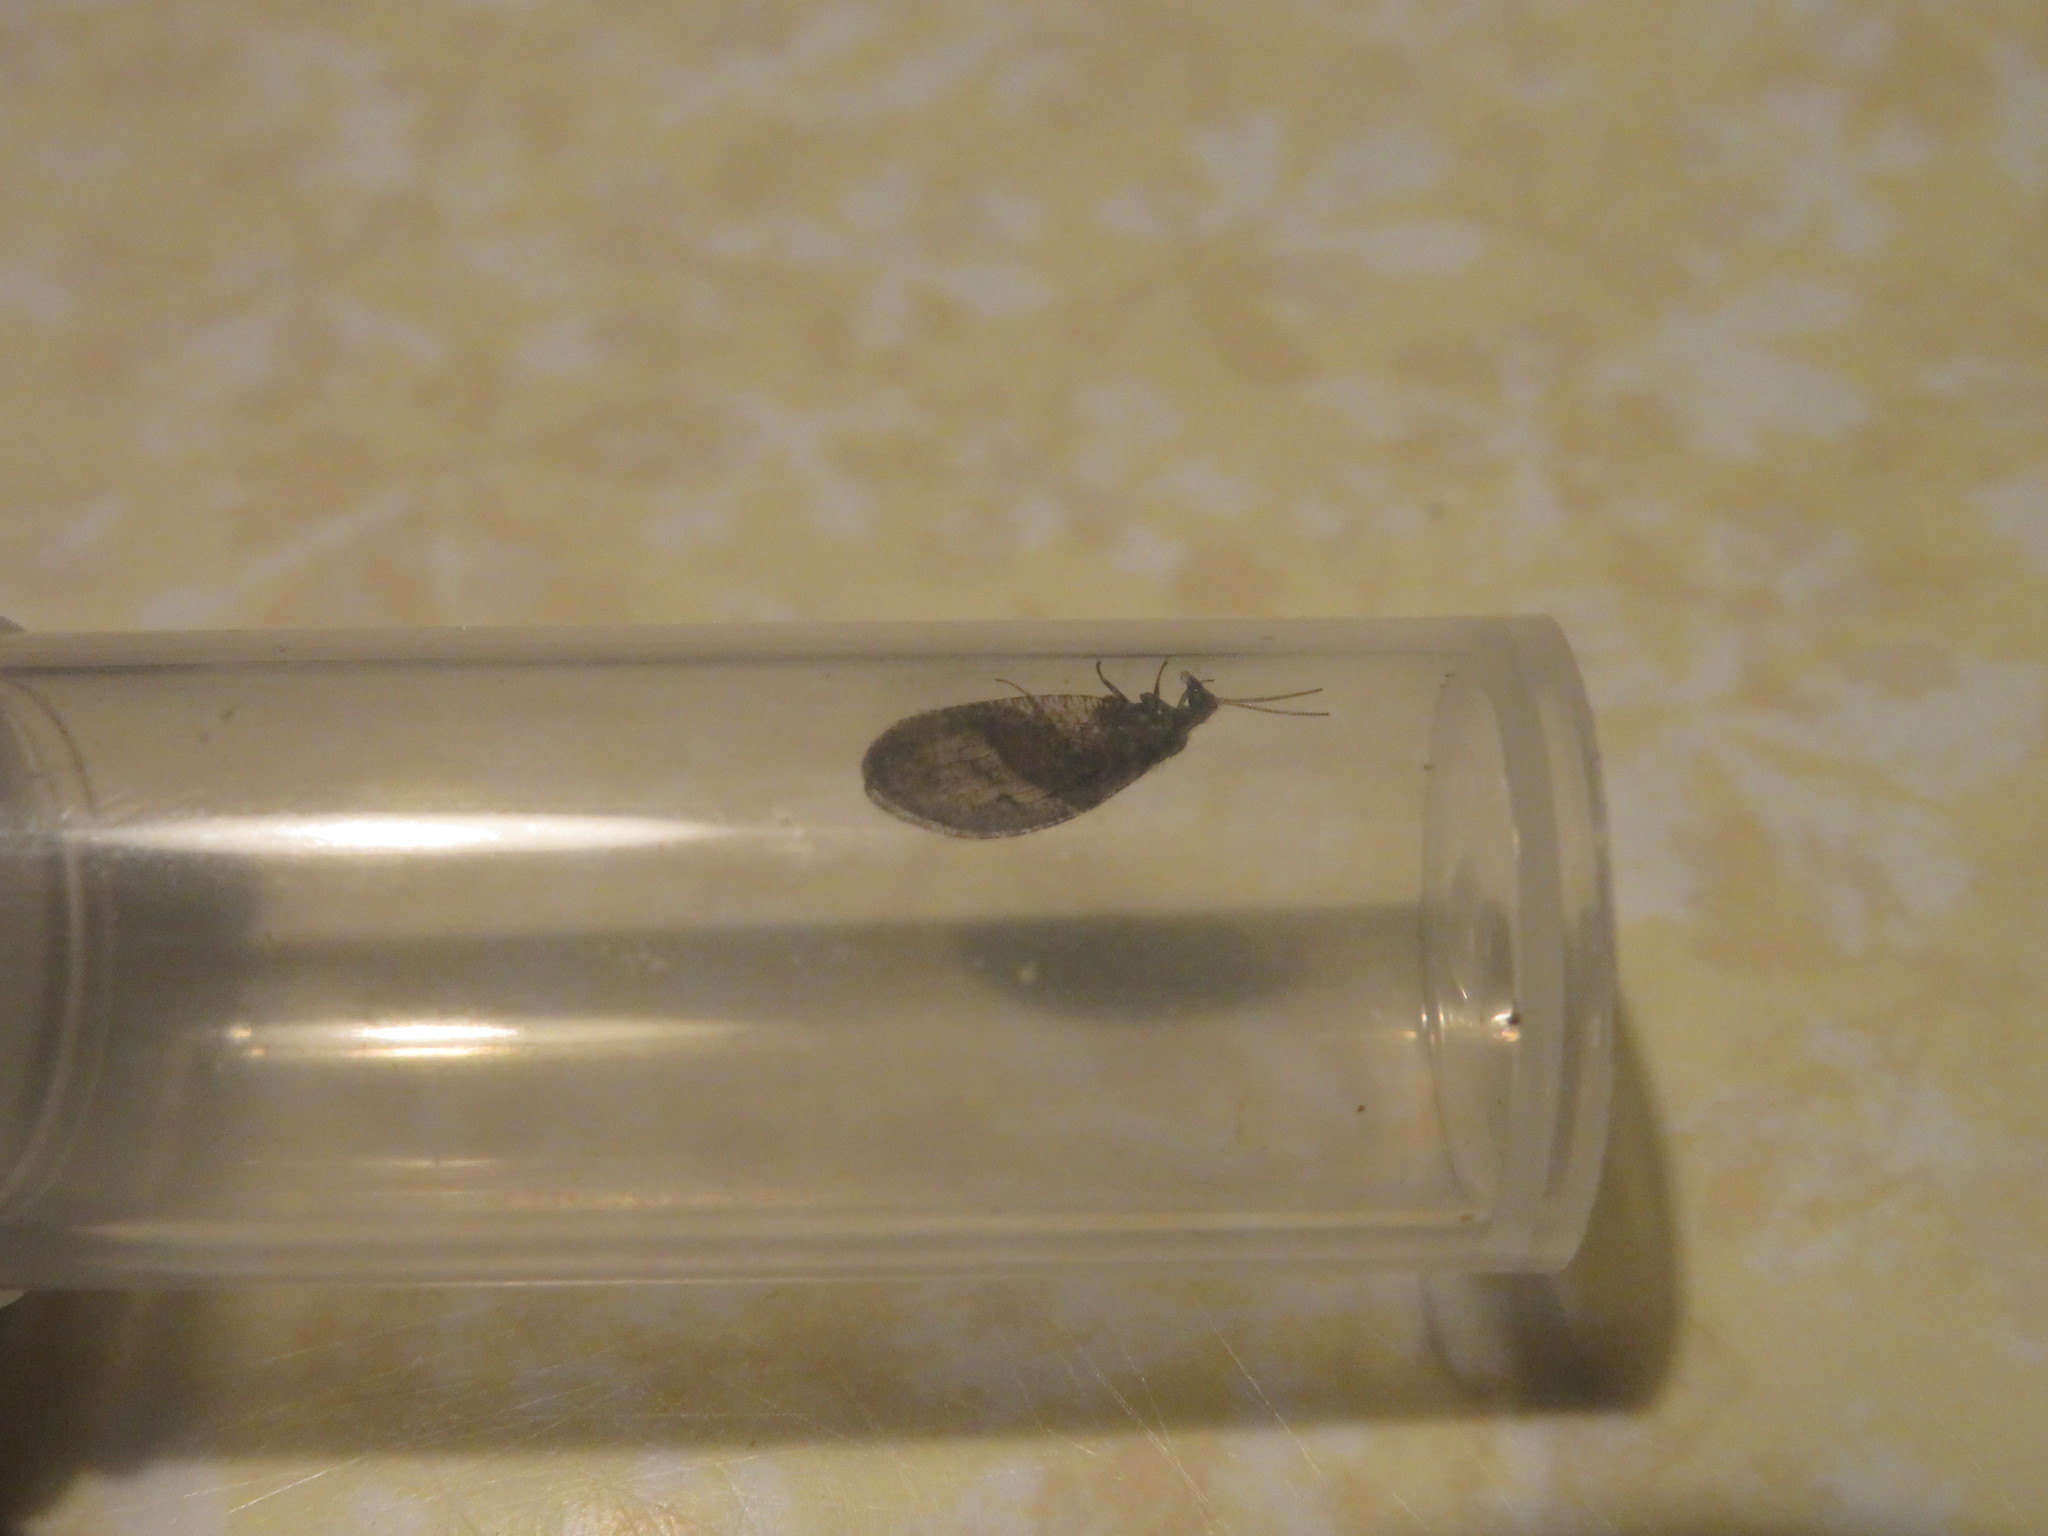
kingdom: Animalia
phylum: Arthropoda
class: Insecta
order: Neuroptera
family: Hemerobiidae
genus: Wesmaelius
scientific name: Wesmaelius subnebulosus
